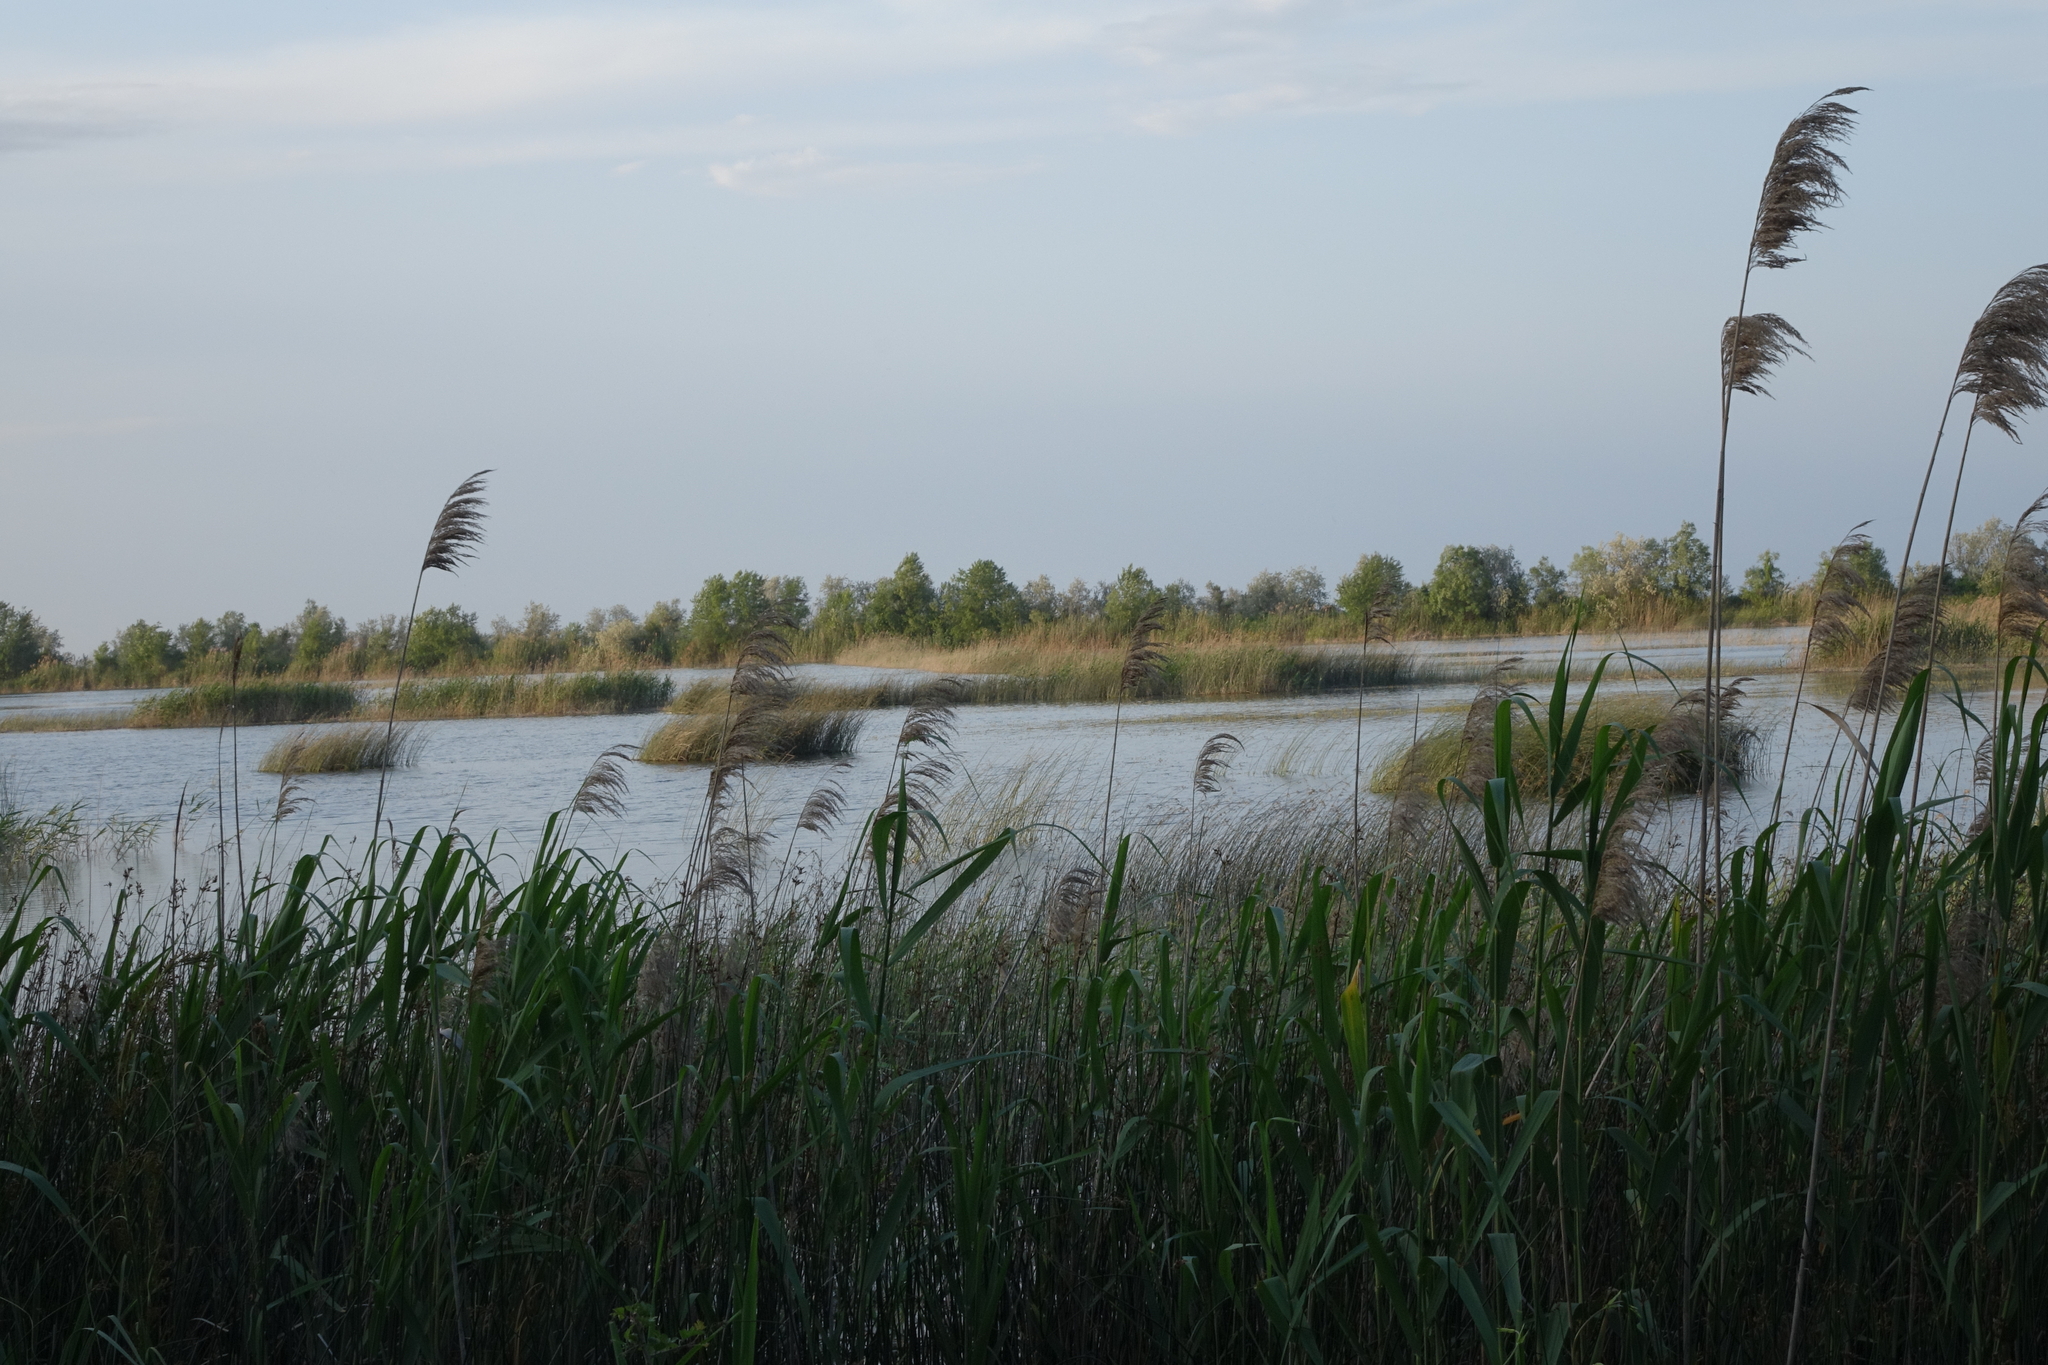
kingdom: Plantae
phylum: Tracheophyta
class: Liliopsida
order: Poales
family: Poaceae
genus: Phragmites
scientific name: Phragmites australis
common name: Common reed
